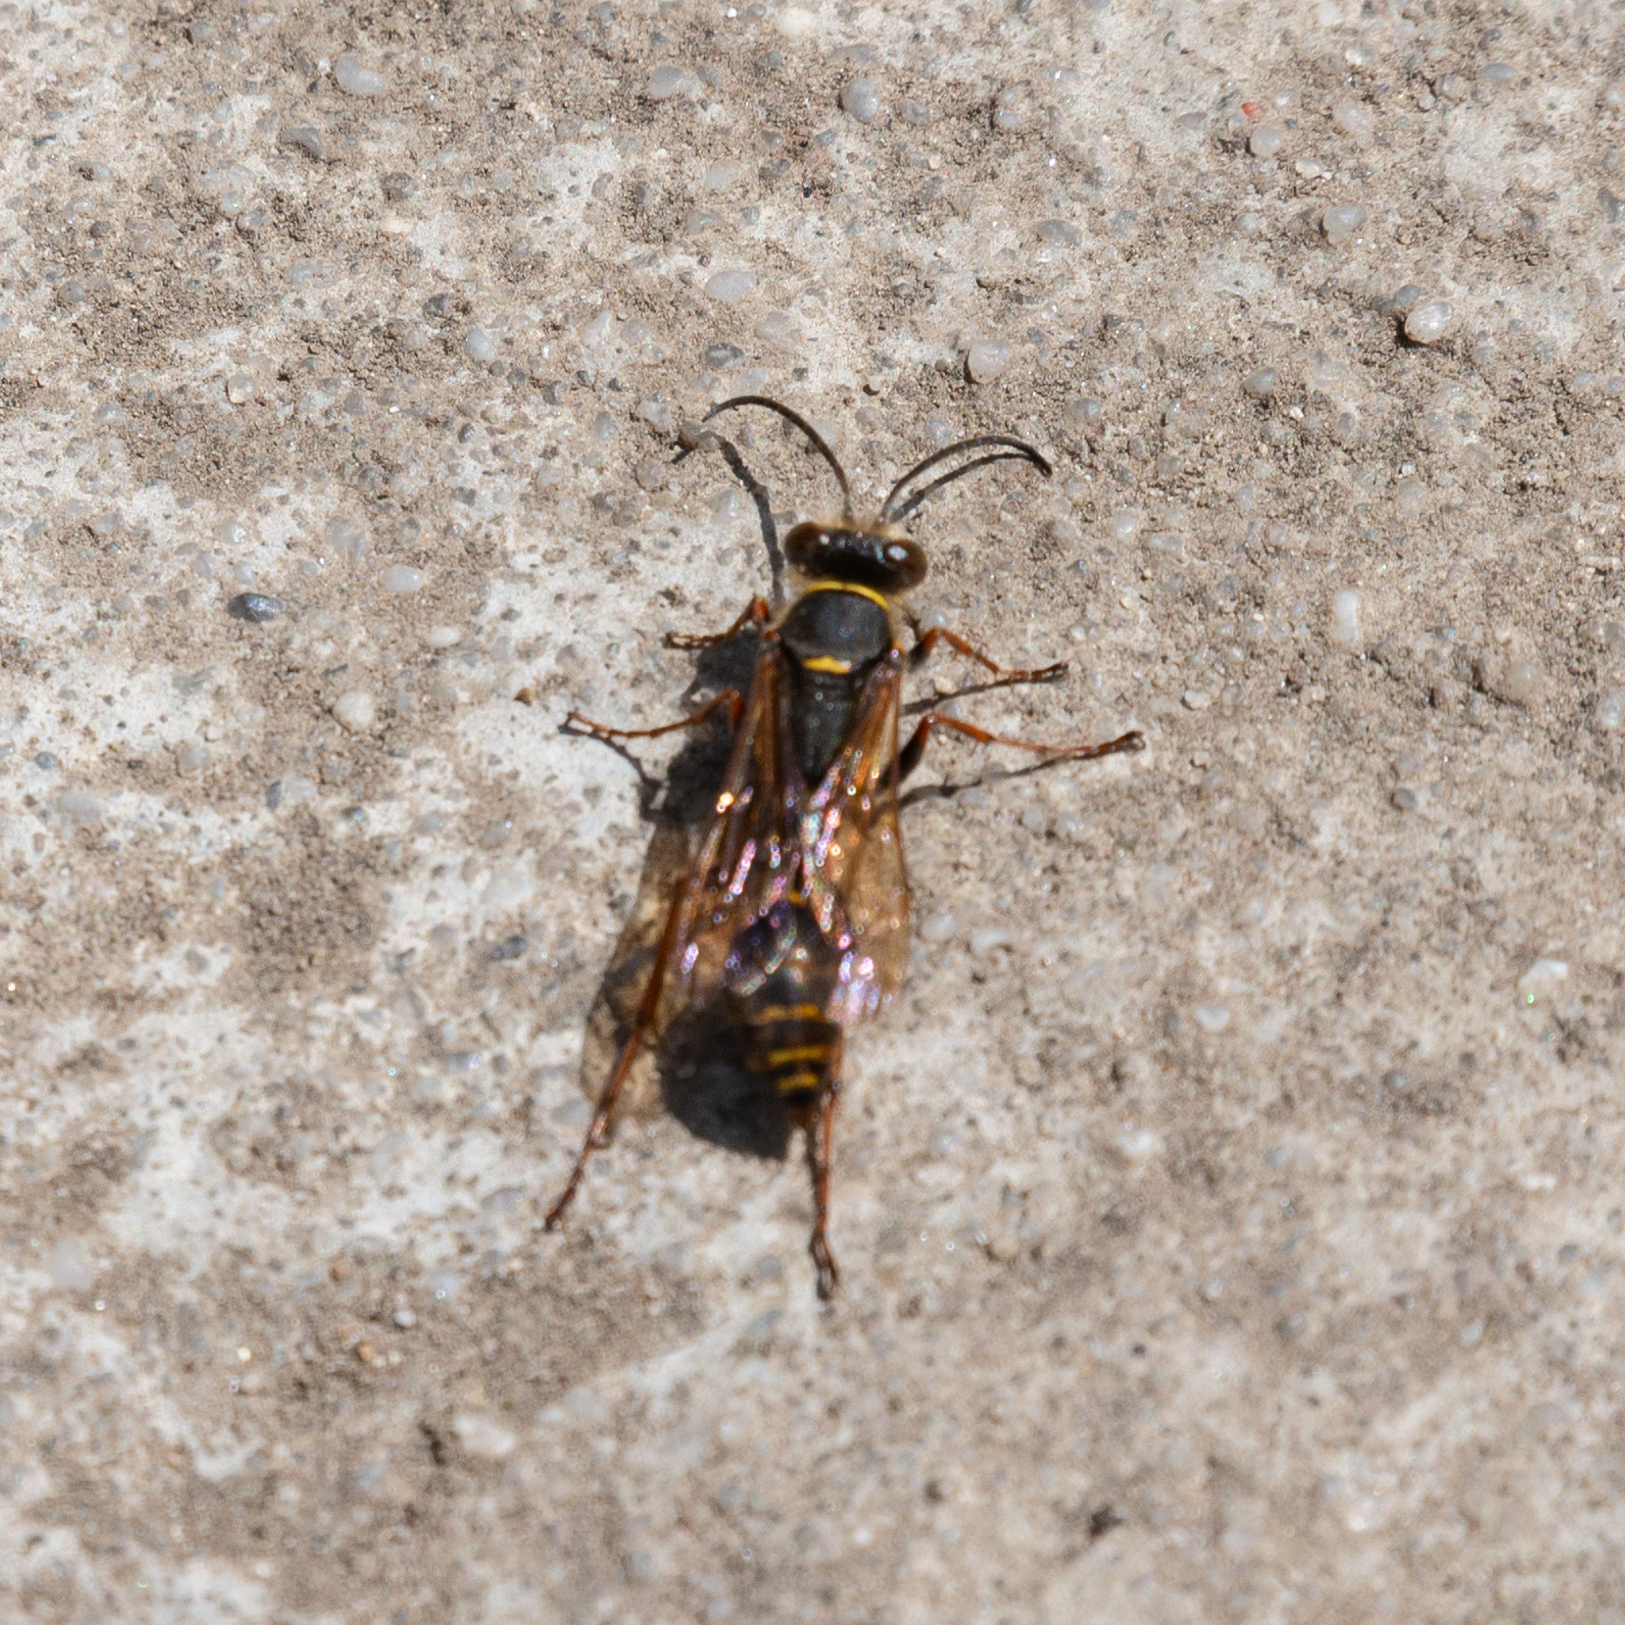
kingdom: Animalia
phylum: Arthropoda
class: Insecta
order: Hymenoptera
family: Sphecidae
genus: Sceliphron
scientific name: Sceliphron curvatum
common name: Pèlopèe
